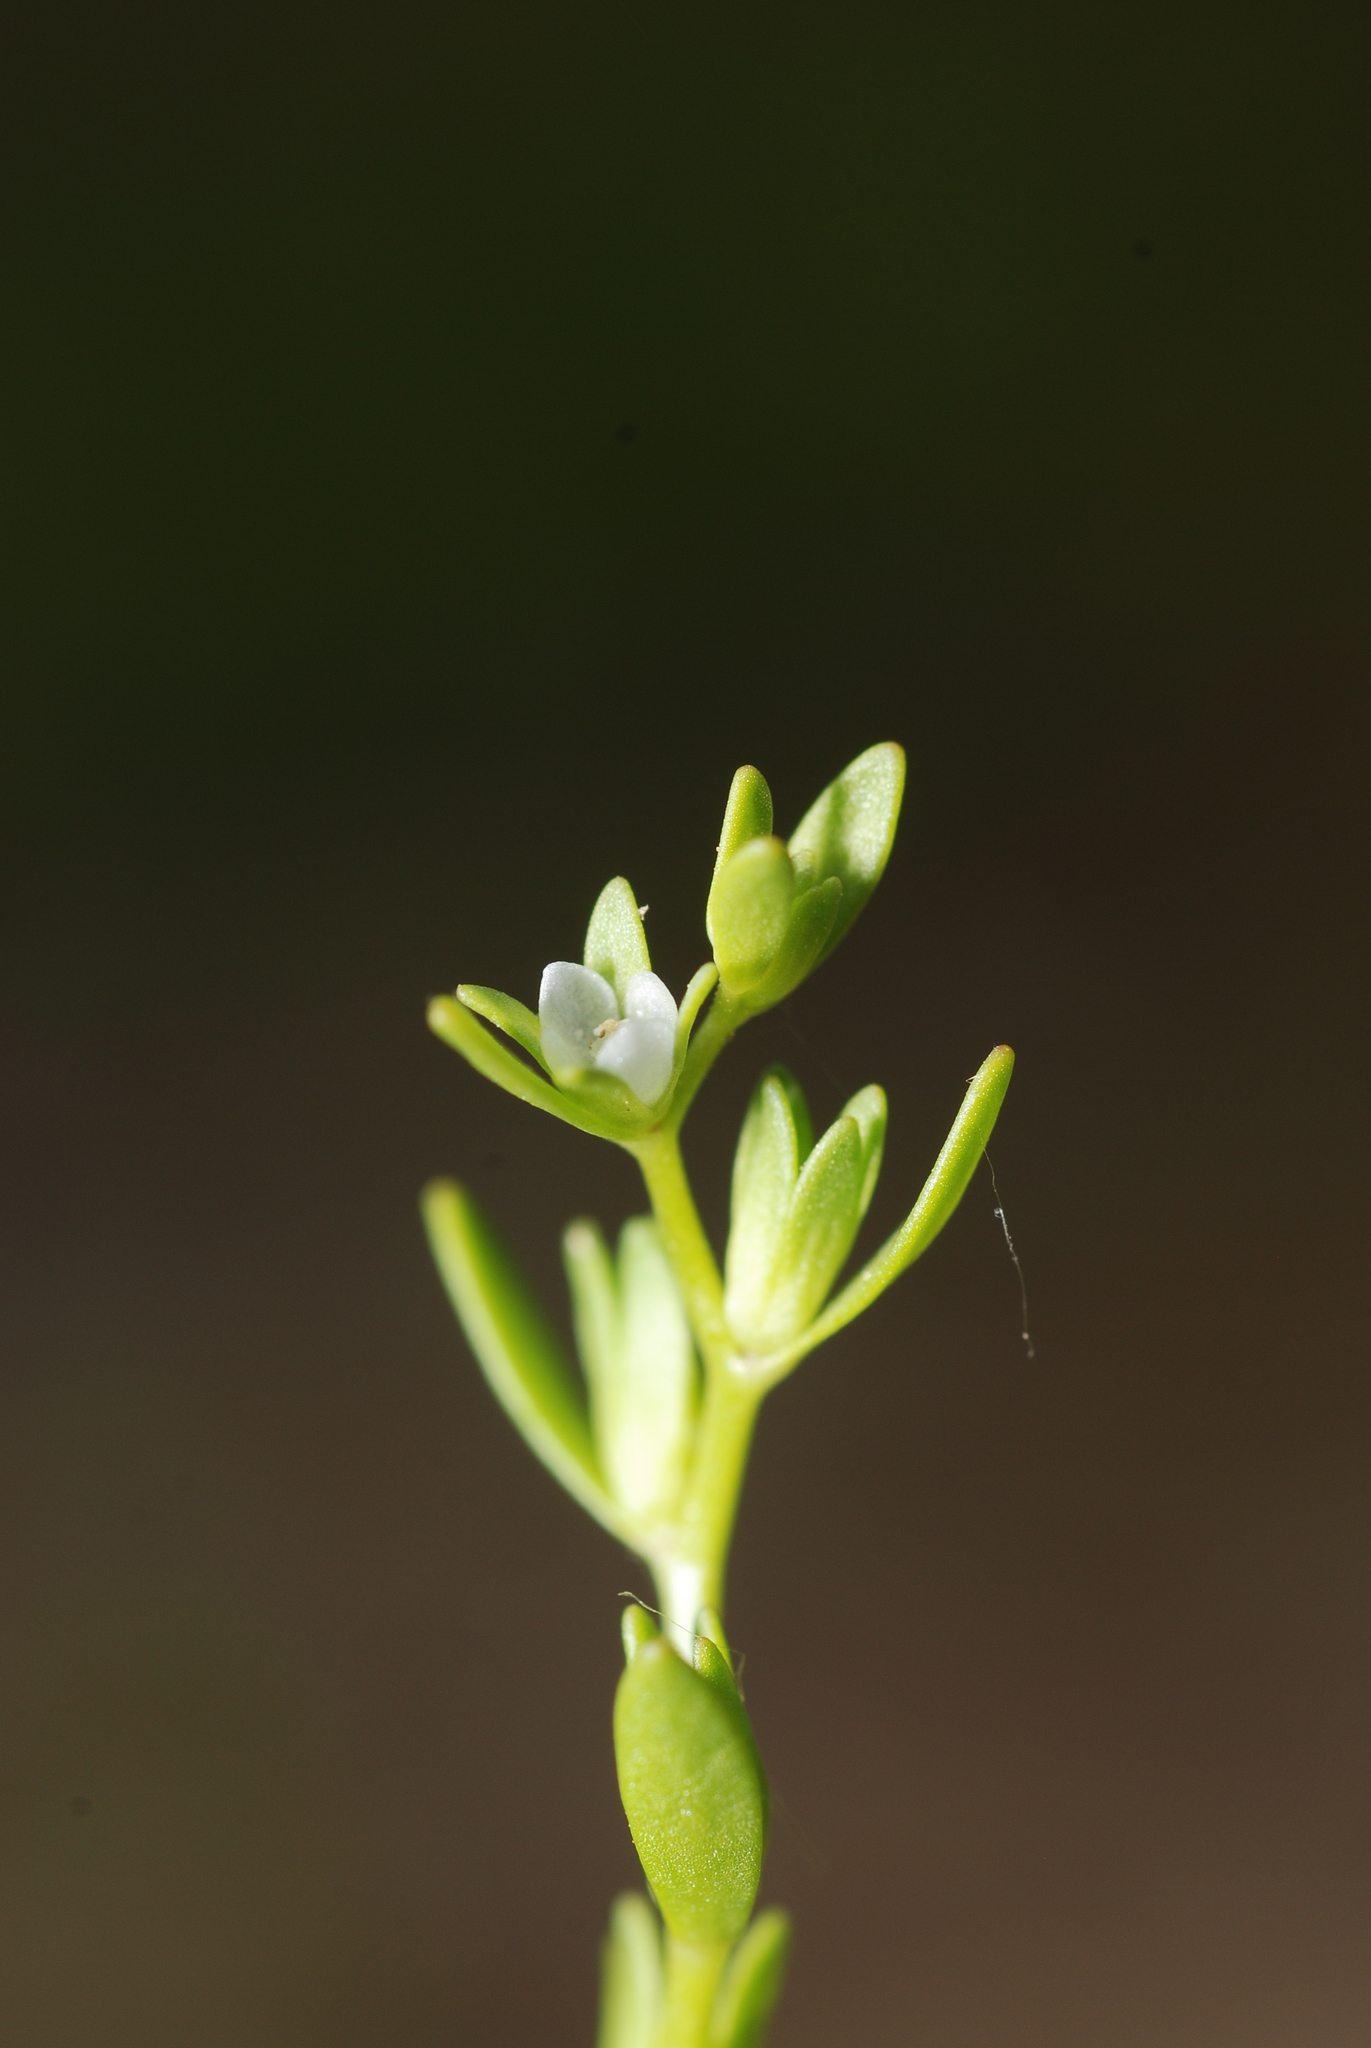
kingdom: Plantae
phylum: Tracheophyta
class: Magnoliopsida
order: Lamiales
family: Plantaginaceae
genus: Veronica
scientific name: Veronica peregrina
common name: Neckweed
